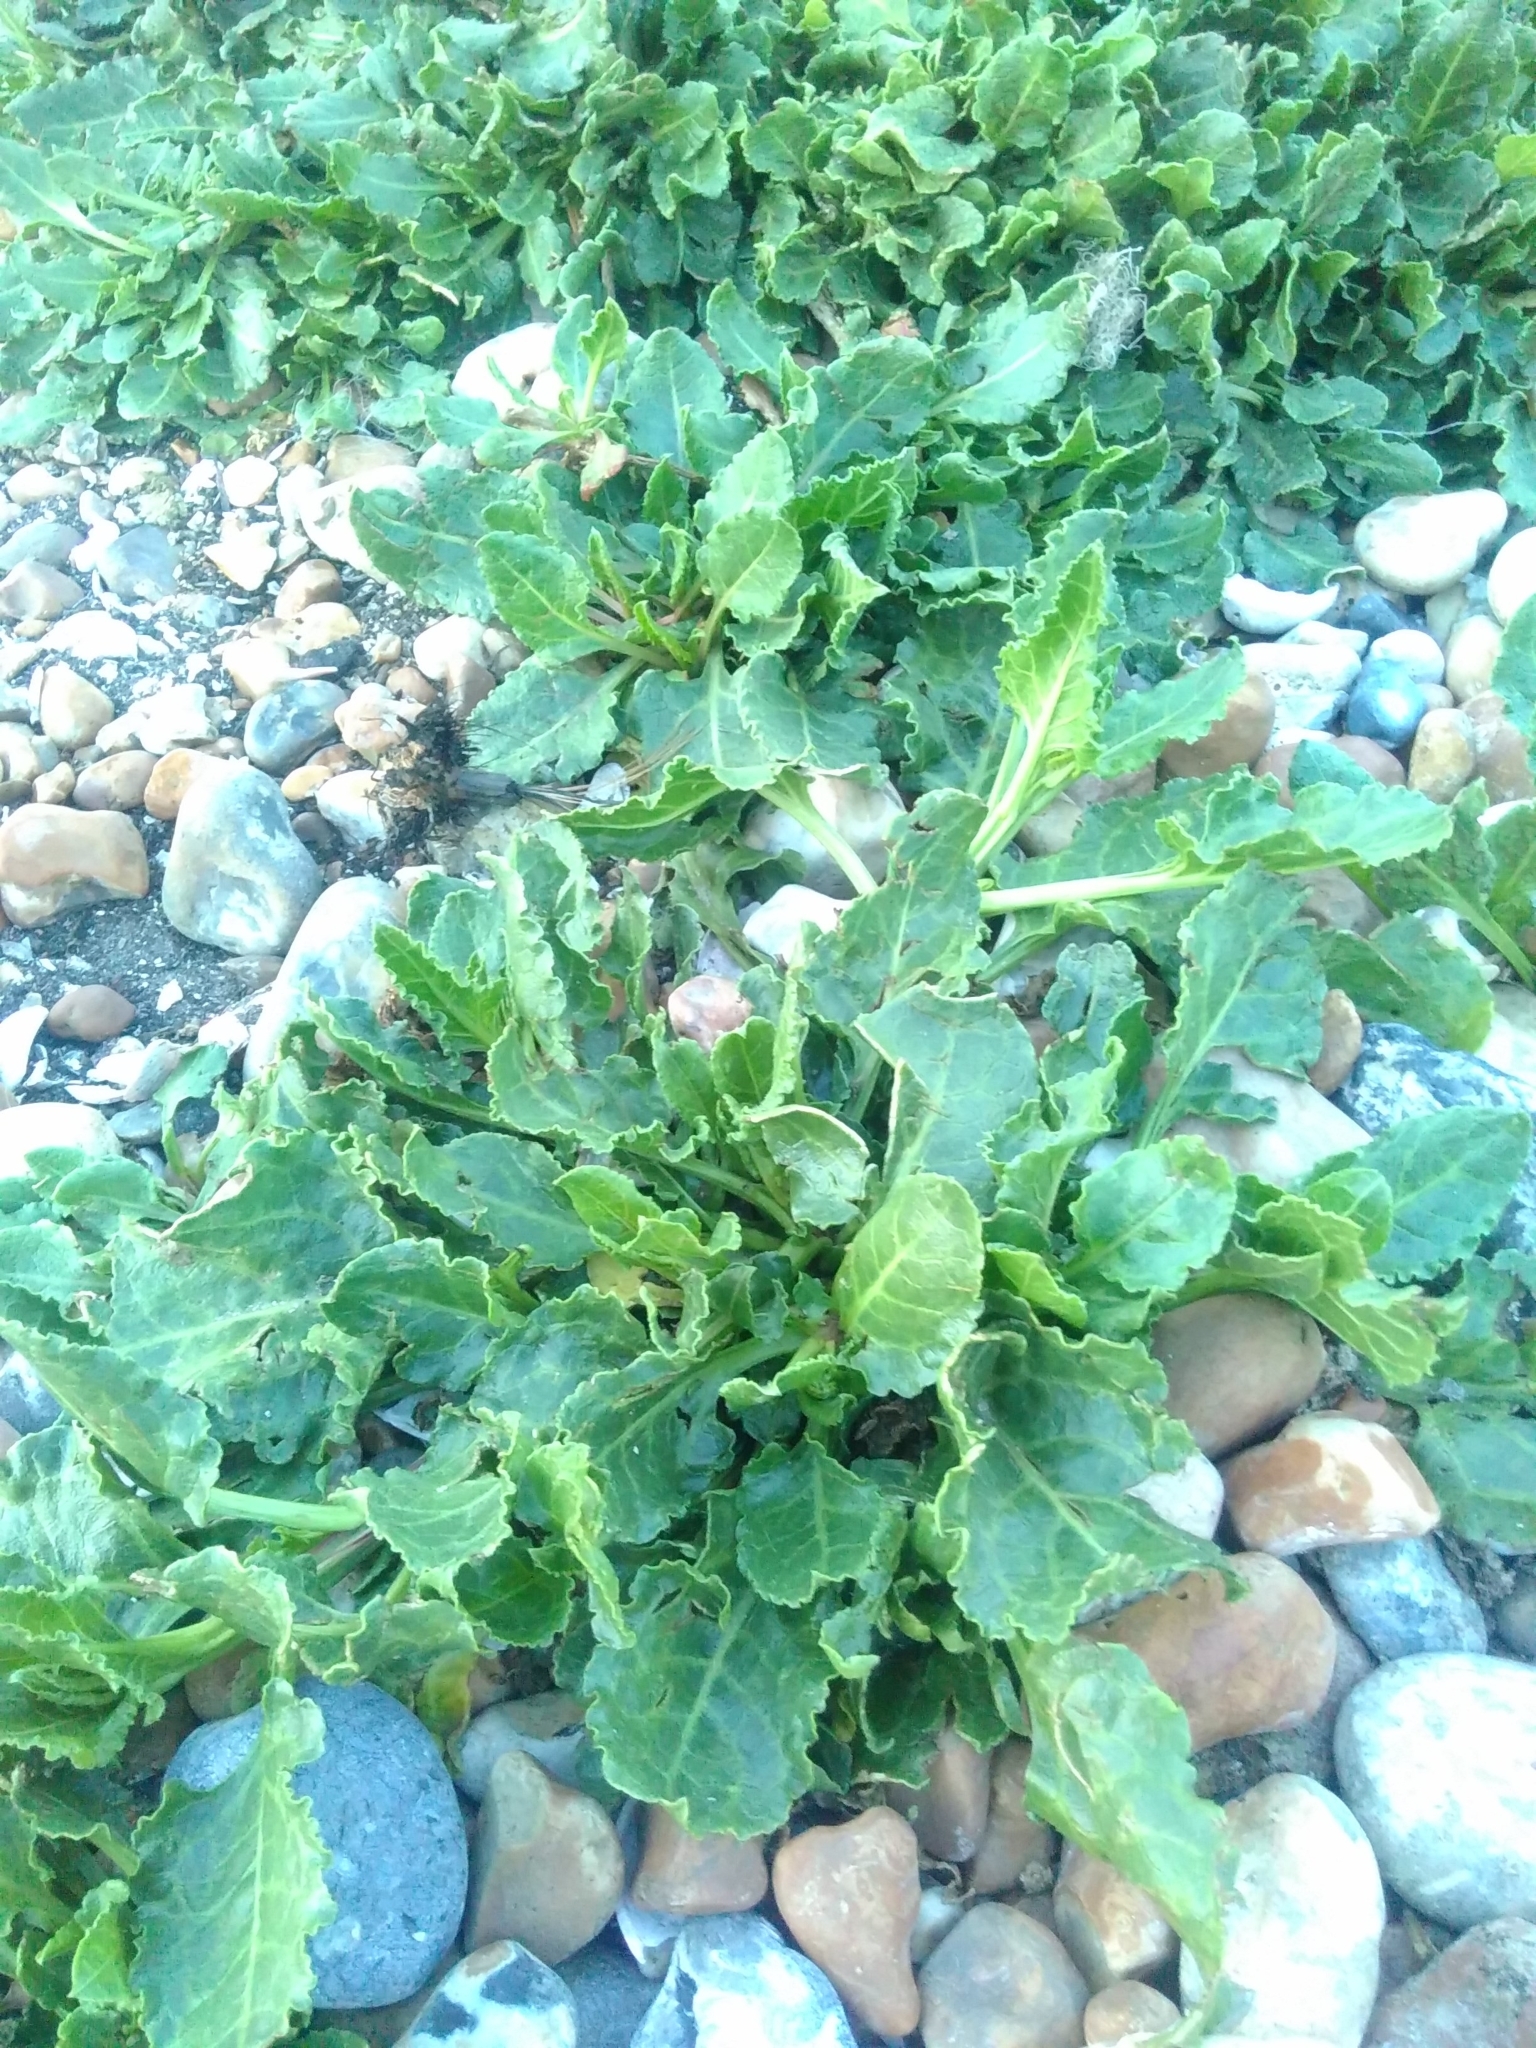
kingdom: Plantae
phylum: Tracheophyta
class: Magnoliopsida
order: Caryophyllales
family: Amaranthaceae
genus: Beta
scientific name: Beta vulgaris
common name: Beet
